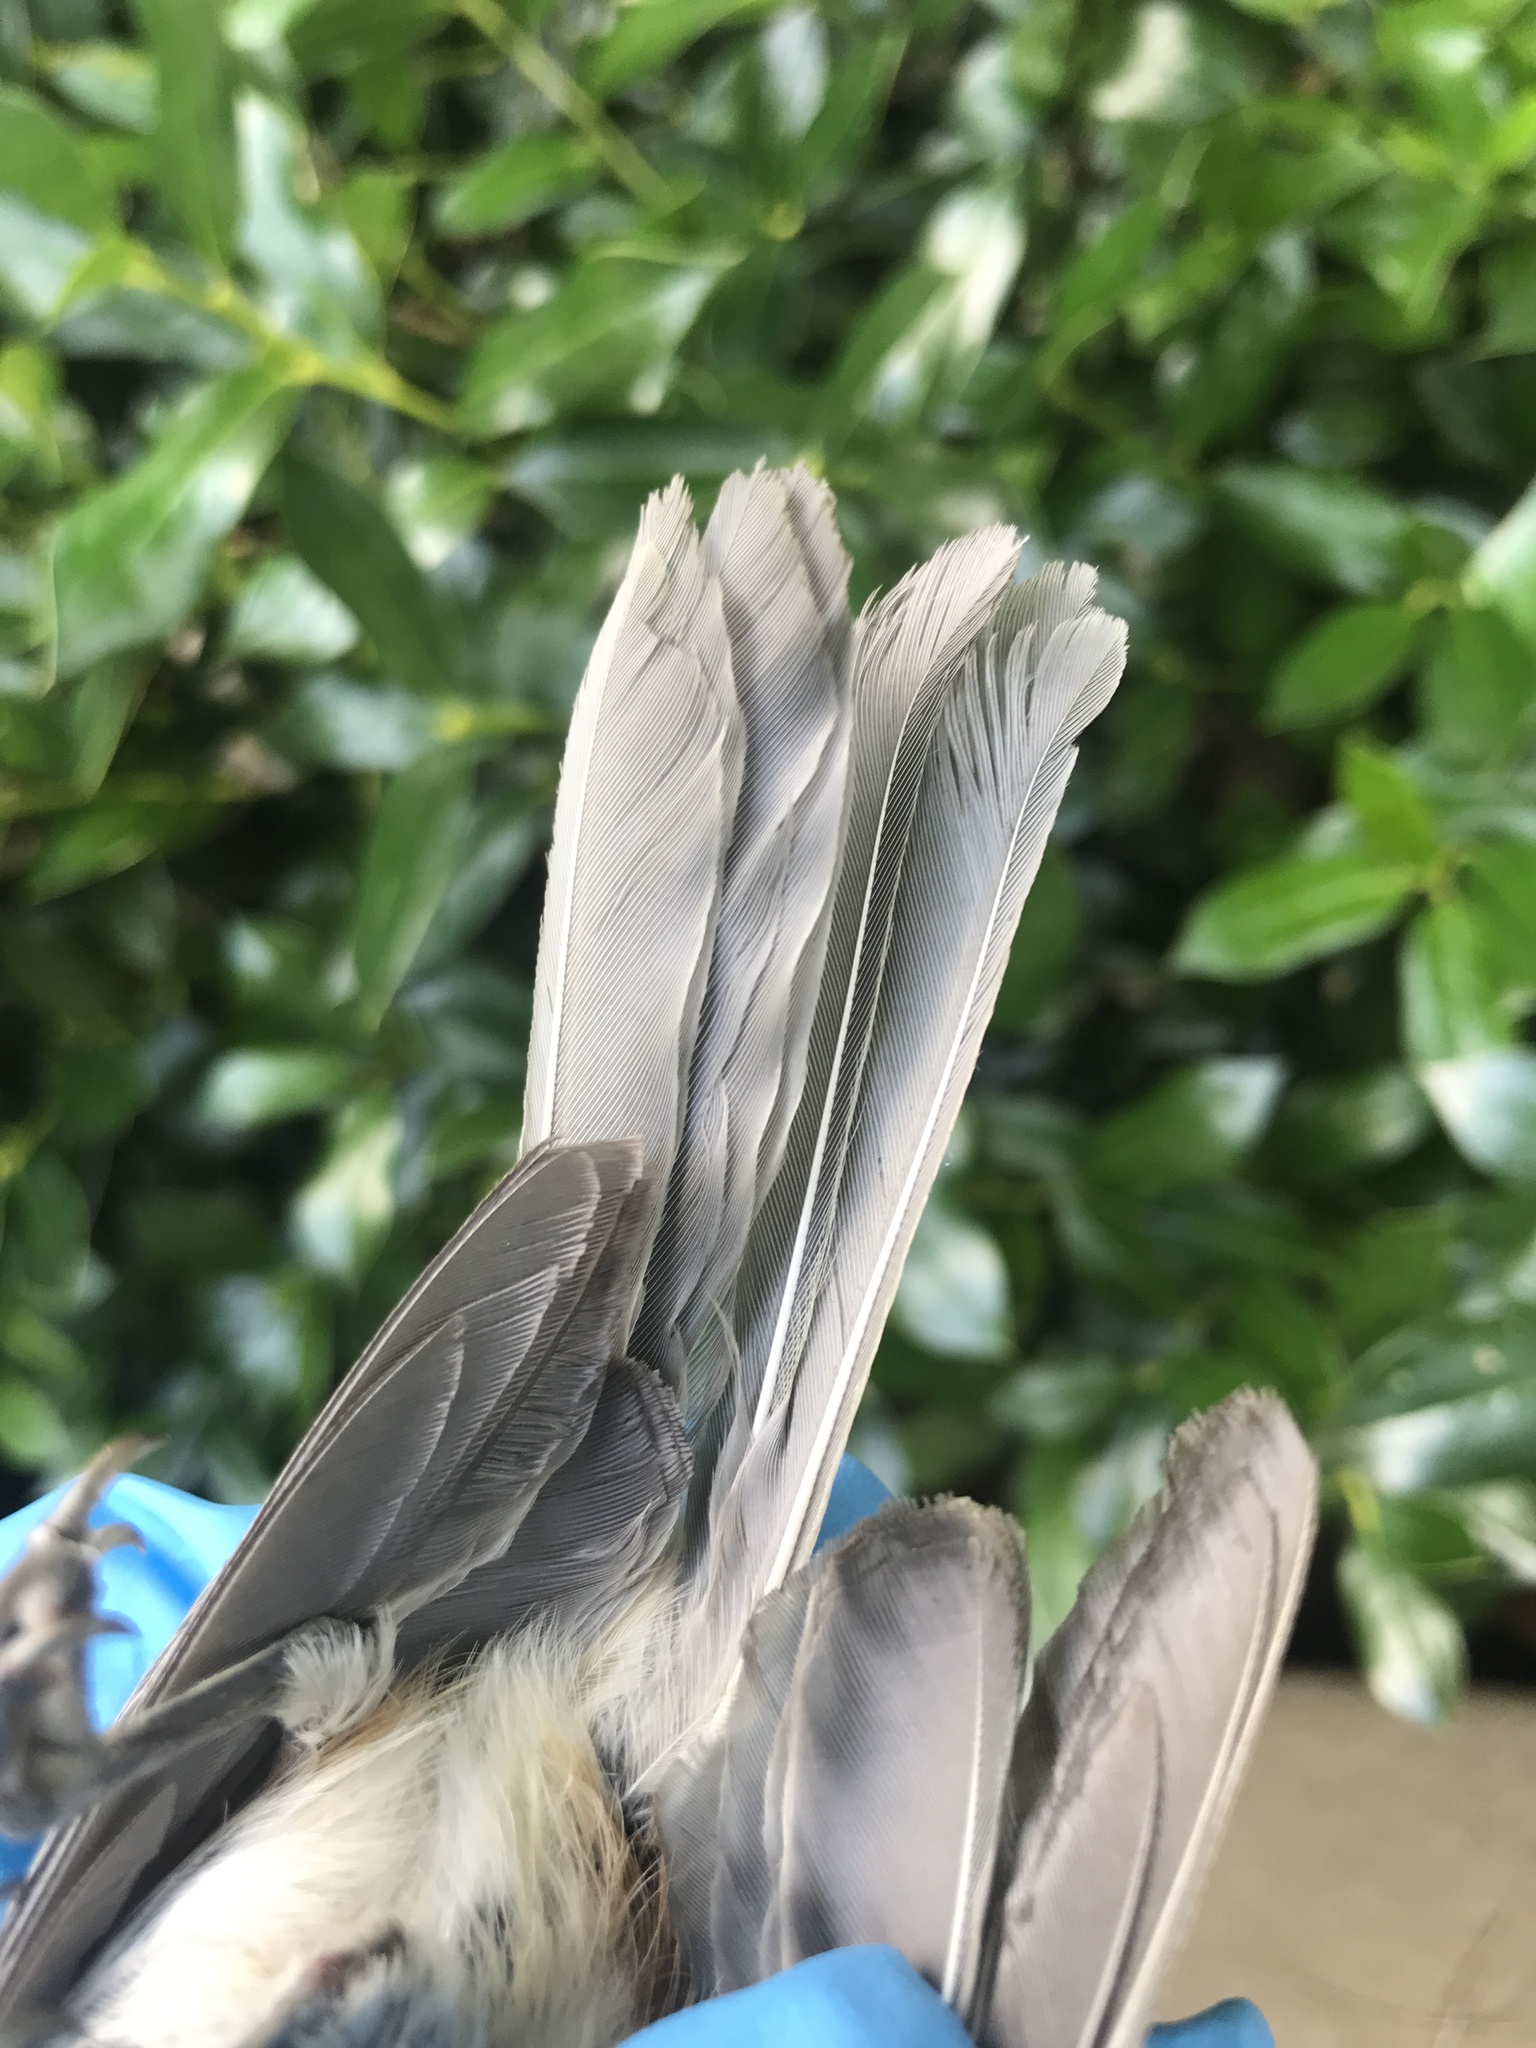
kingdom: Animalia
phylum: Chordata
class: Aves
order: Passeriformes
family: Paridae
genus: Baeolophus
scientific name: Baeolophus bicolor
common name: Tufted titmouse
